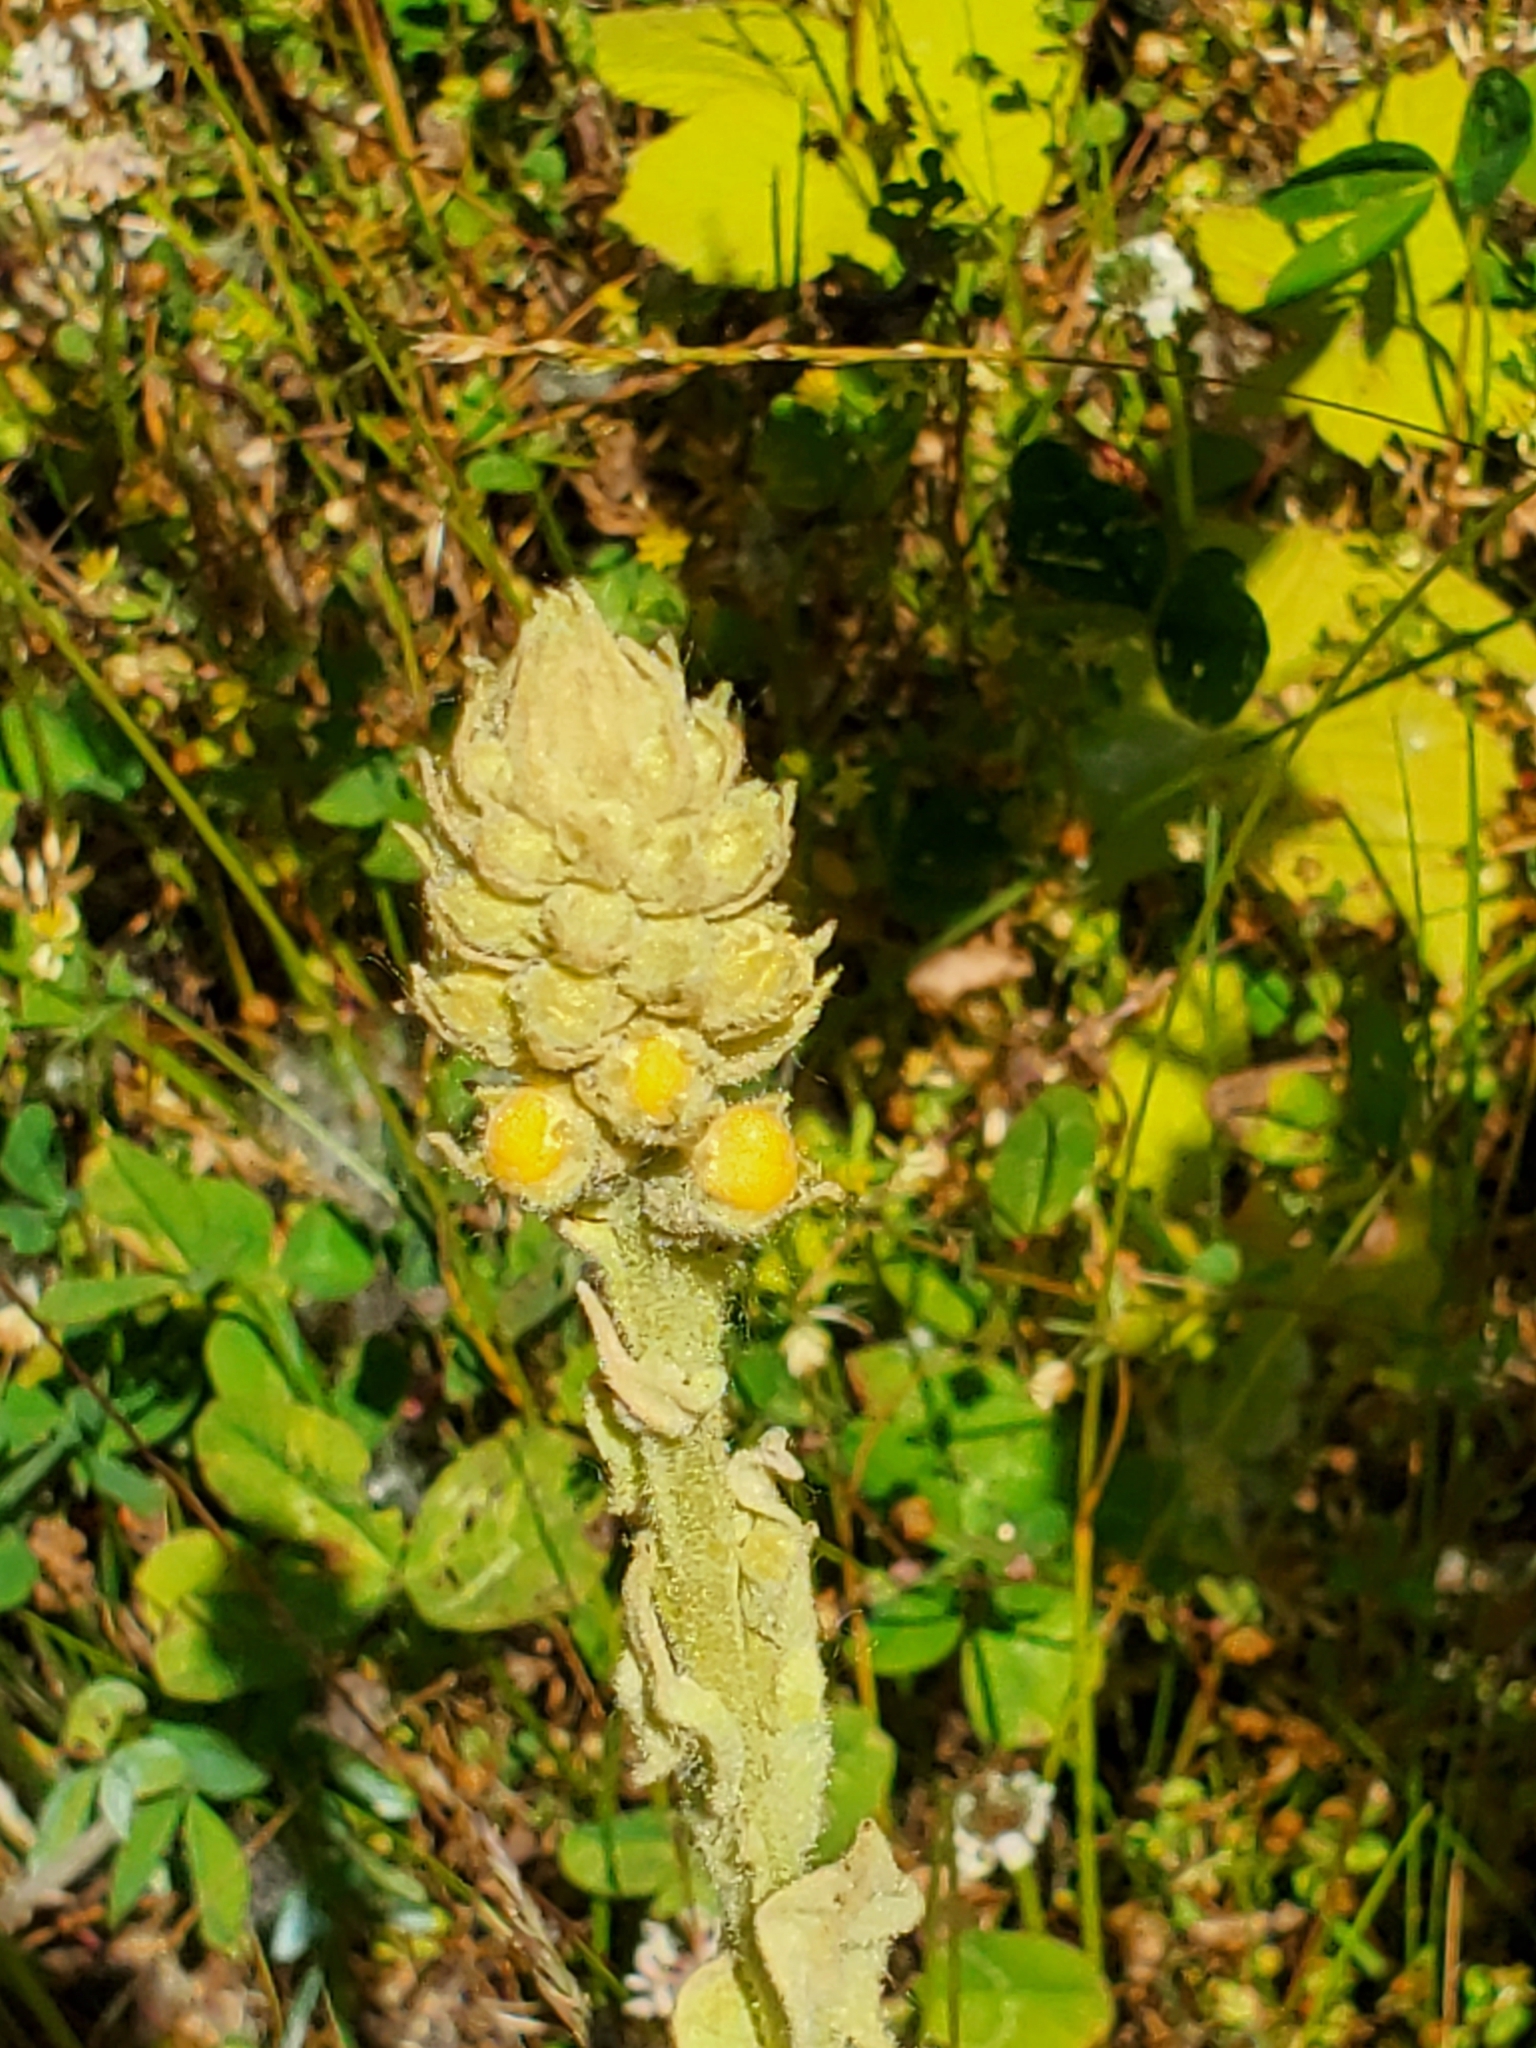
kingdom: Plantae
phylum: Tracheophyta
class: Magnoliopsida
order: Lamiales
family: Scrophulariaceae
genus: Verbascum
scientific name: Verbascum thapsus
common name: Common mullein
